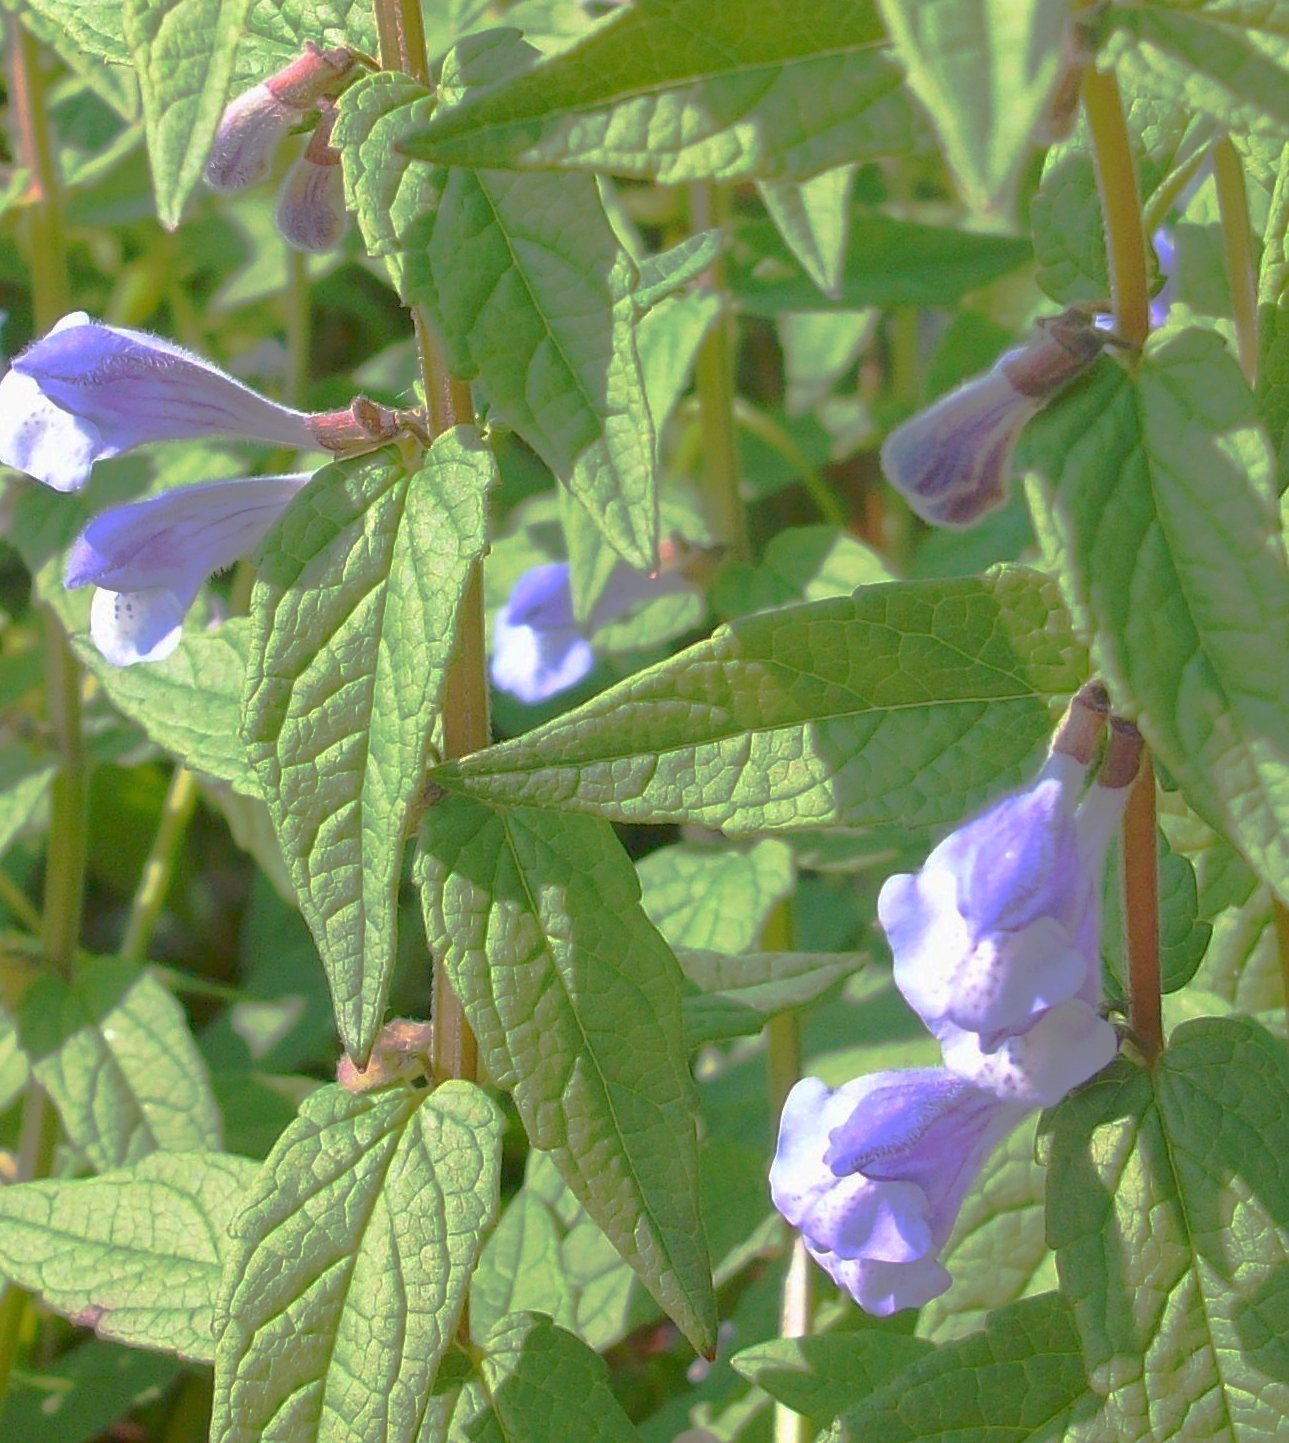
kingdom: Plantae
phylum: Tracheophyta
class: Magnoliopsida
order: Lamiales
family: Lamiaceae
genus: Scutellaria
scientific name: Scutellaria galericulata
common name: Skullcap
